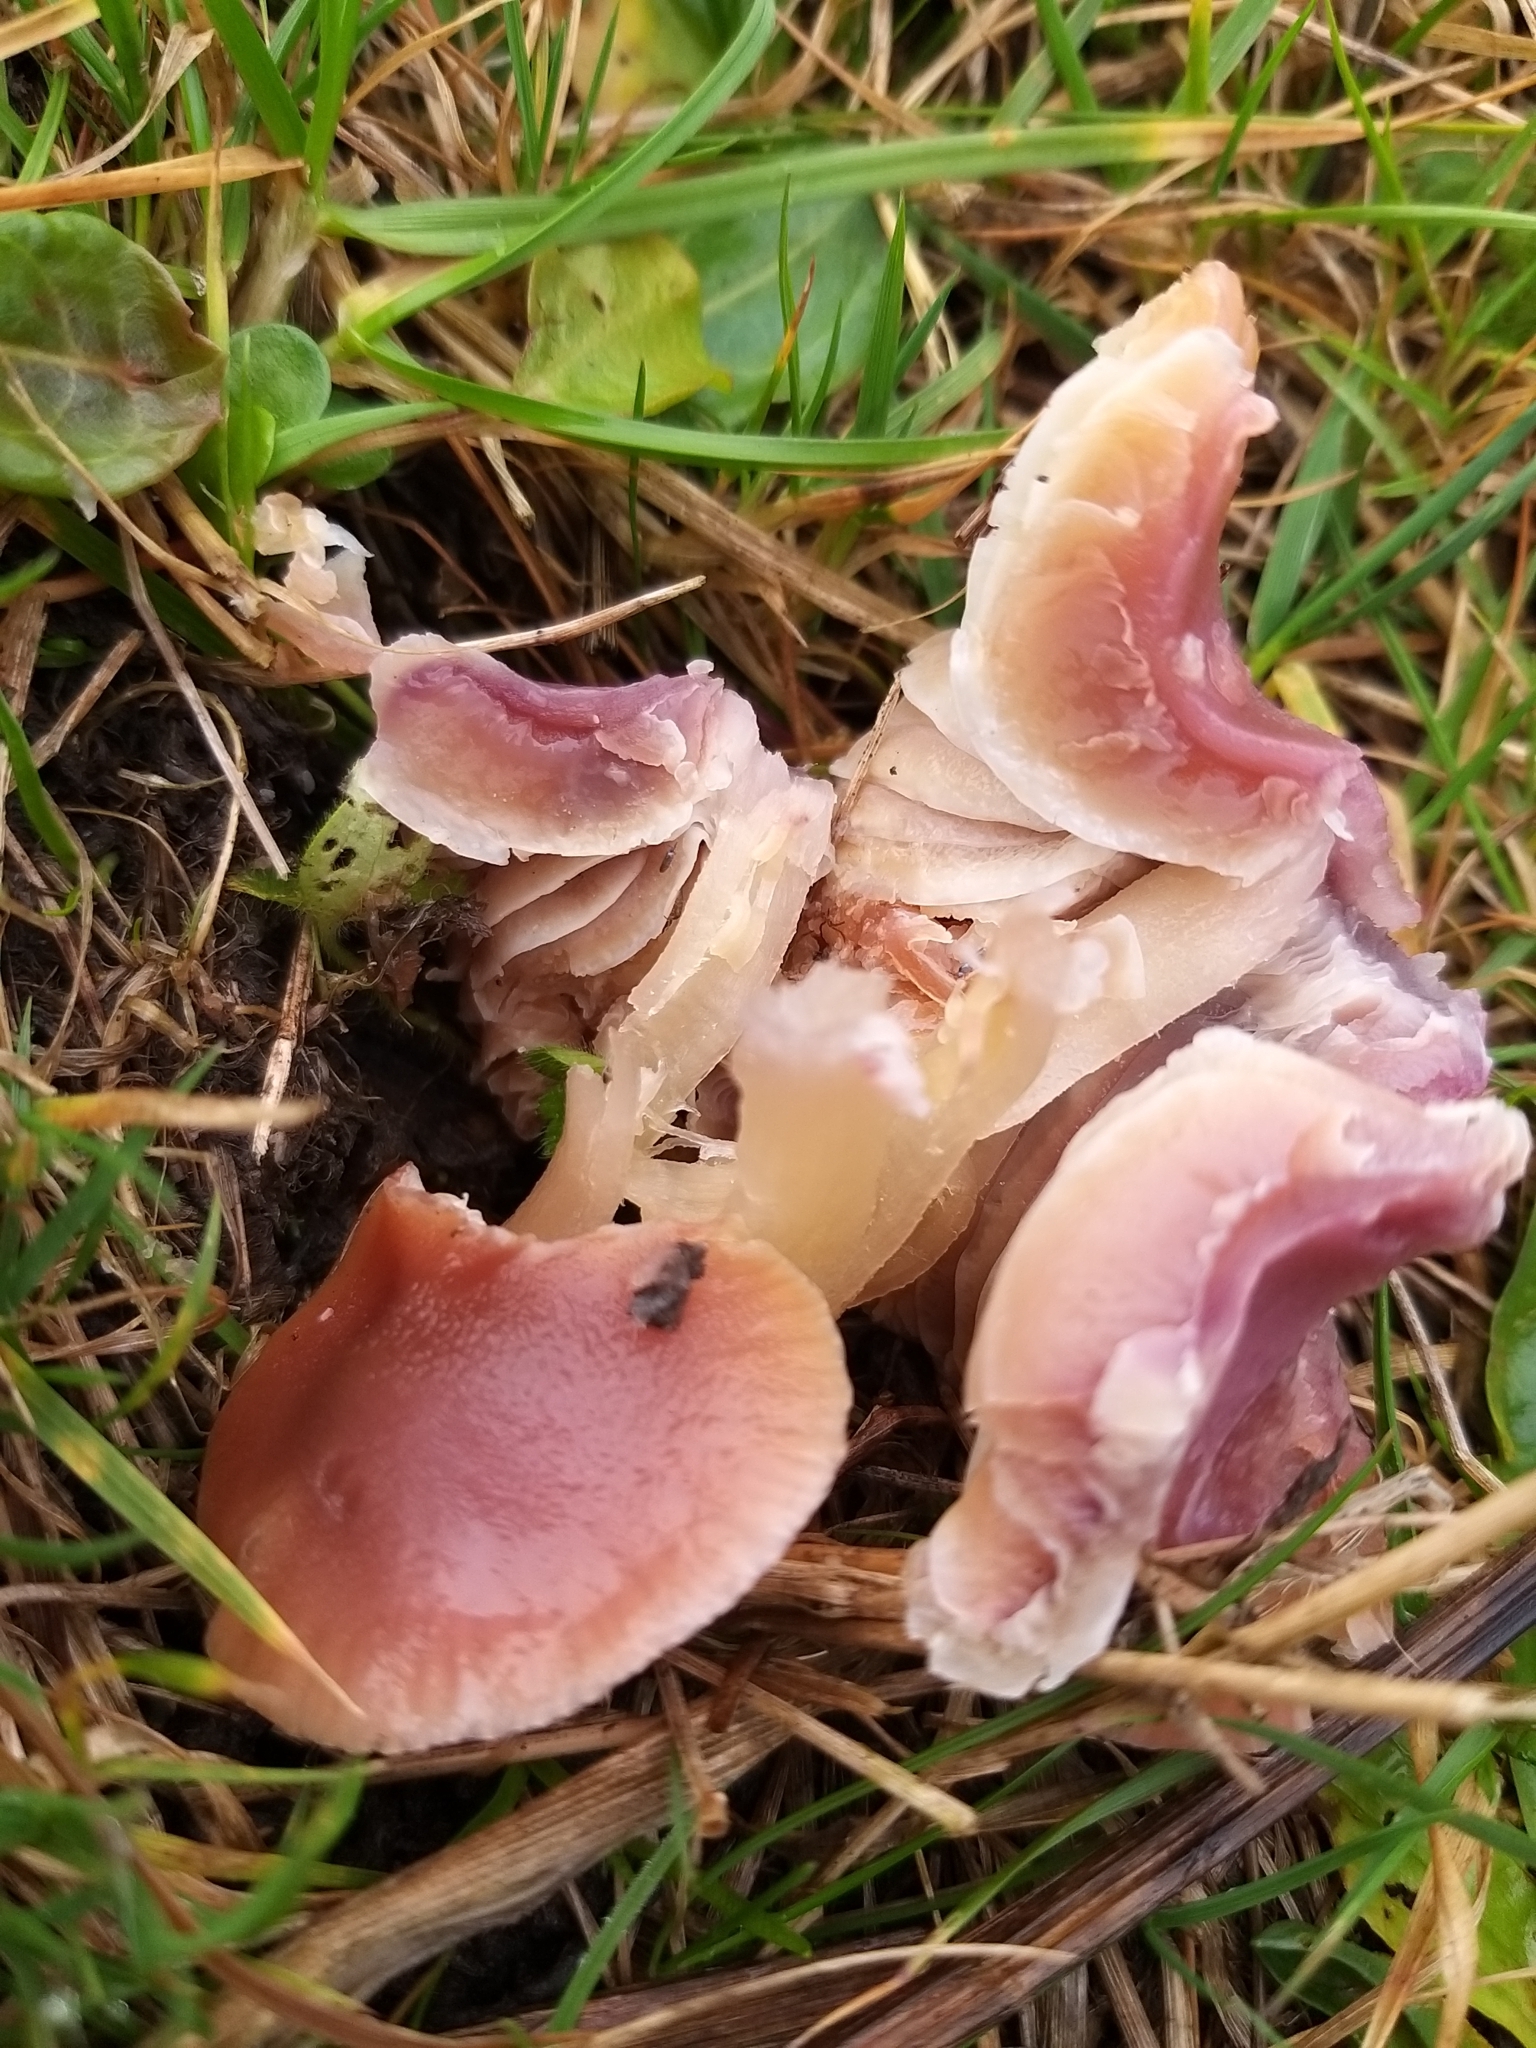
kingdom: Fungi
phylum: Basidiomycota
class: Agaricomycetes
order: Agaricales
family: Hygrophoraceae
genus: Gliophorus
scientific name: Gliophorus reginae
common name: Jubilee waxcap
